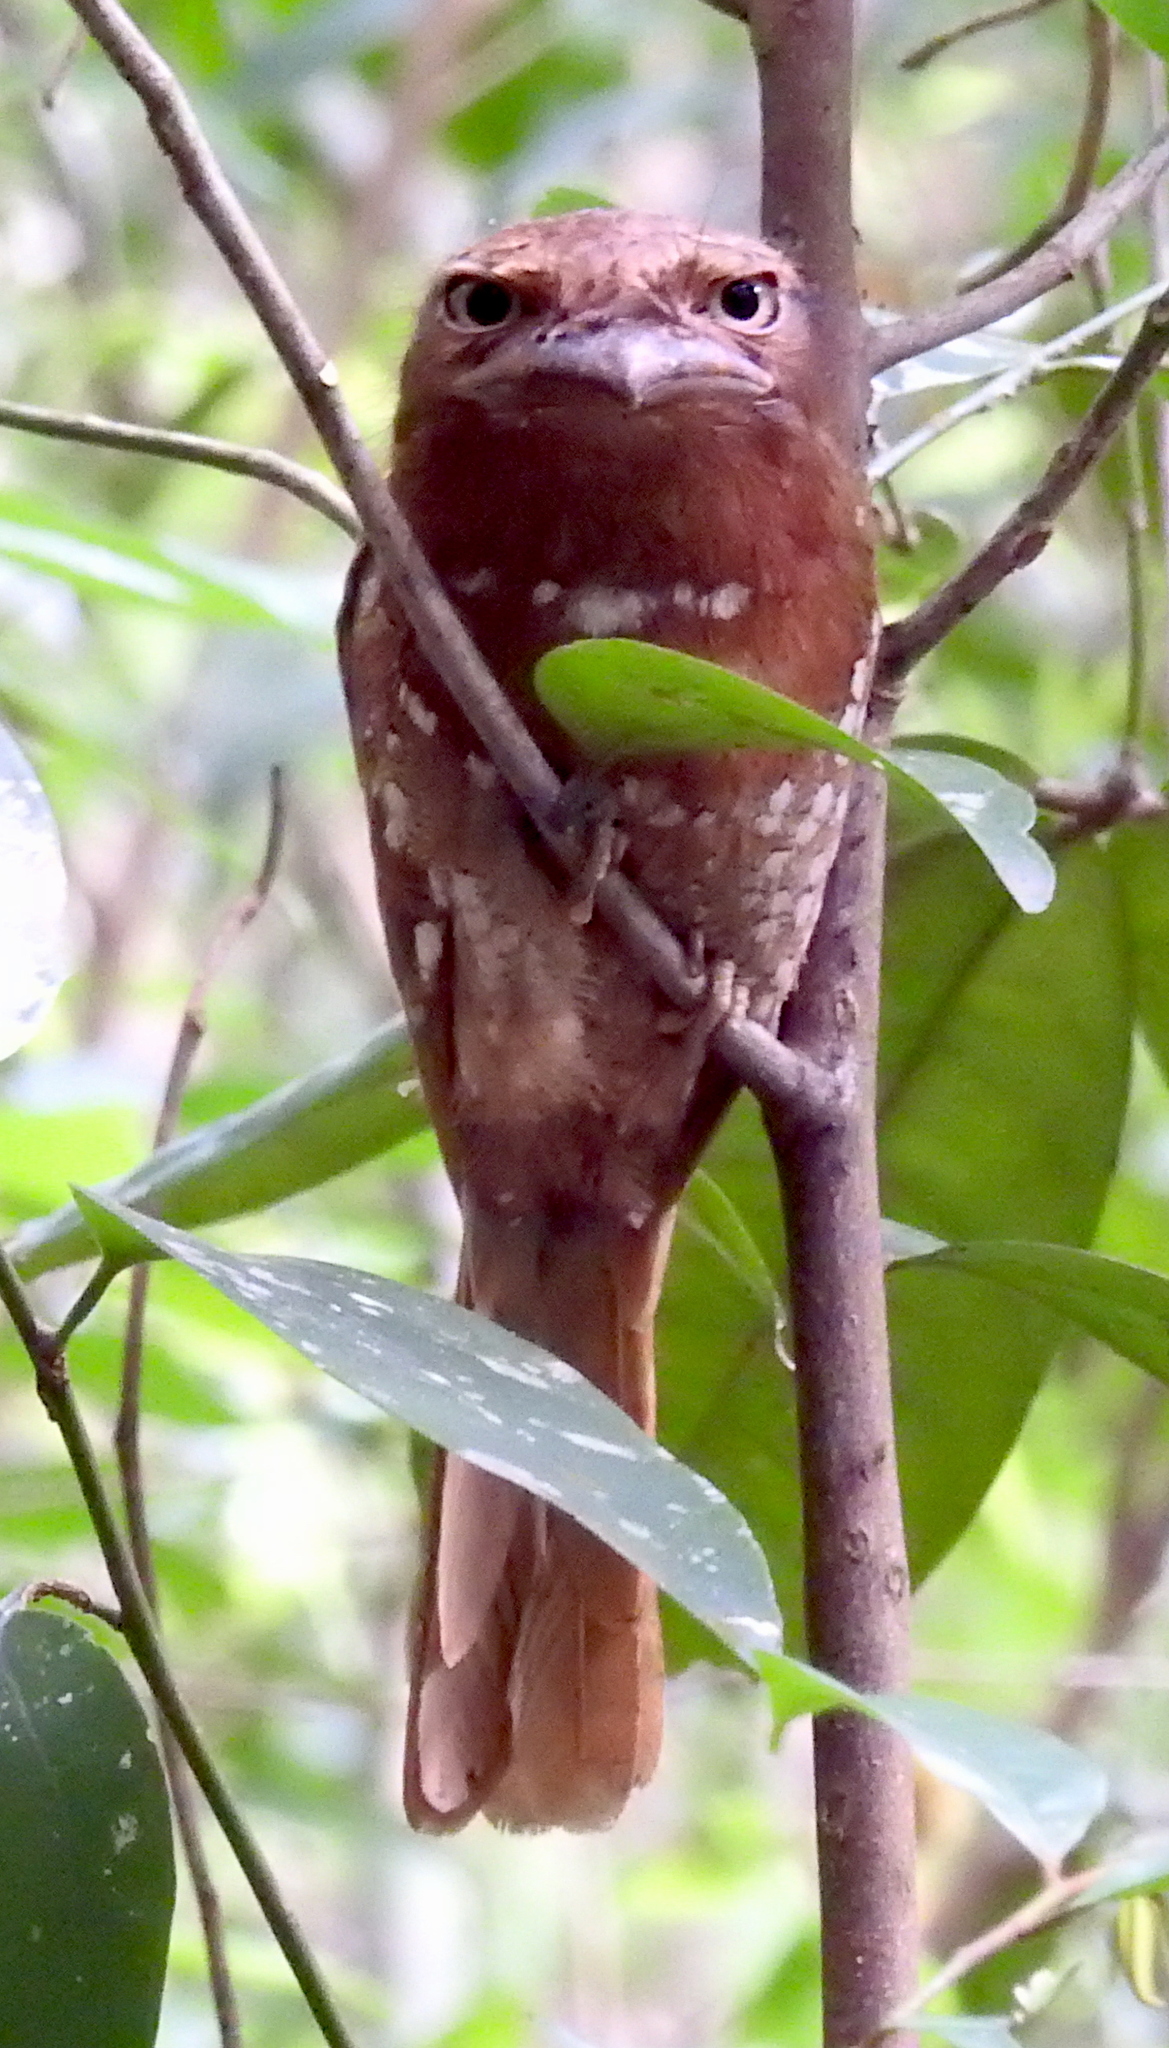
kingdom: Animalia
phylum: Chordata
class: Aves
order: Caprimulgiformes
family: Podargidae
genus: Batrachostomus
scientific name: Batrachostomus moniliger
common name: Sri lanka frogmouth
